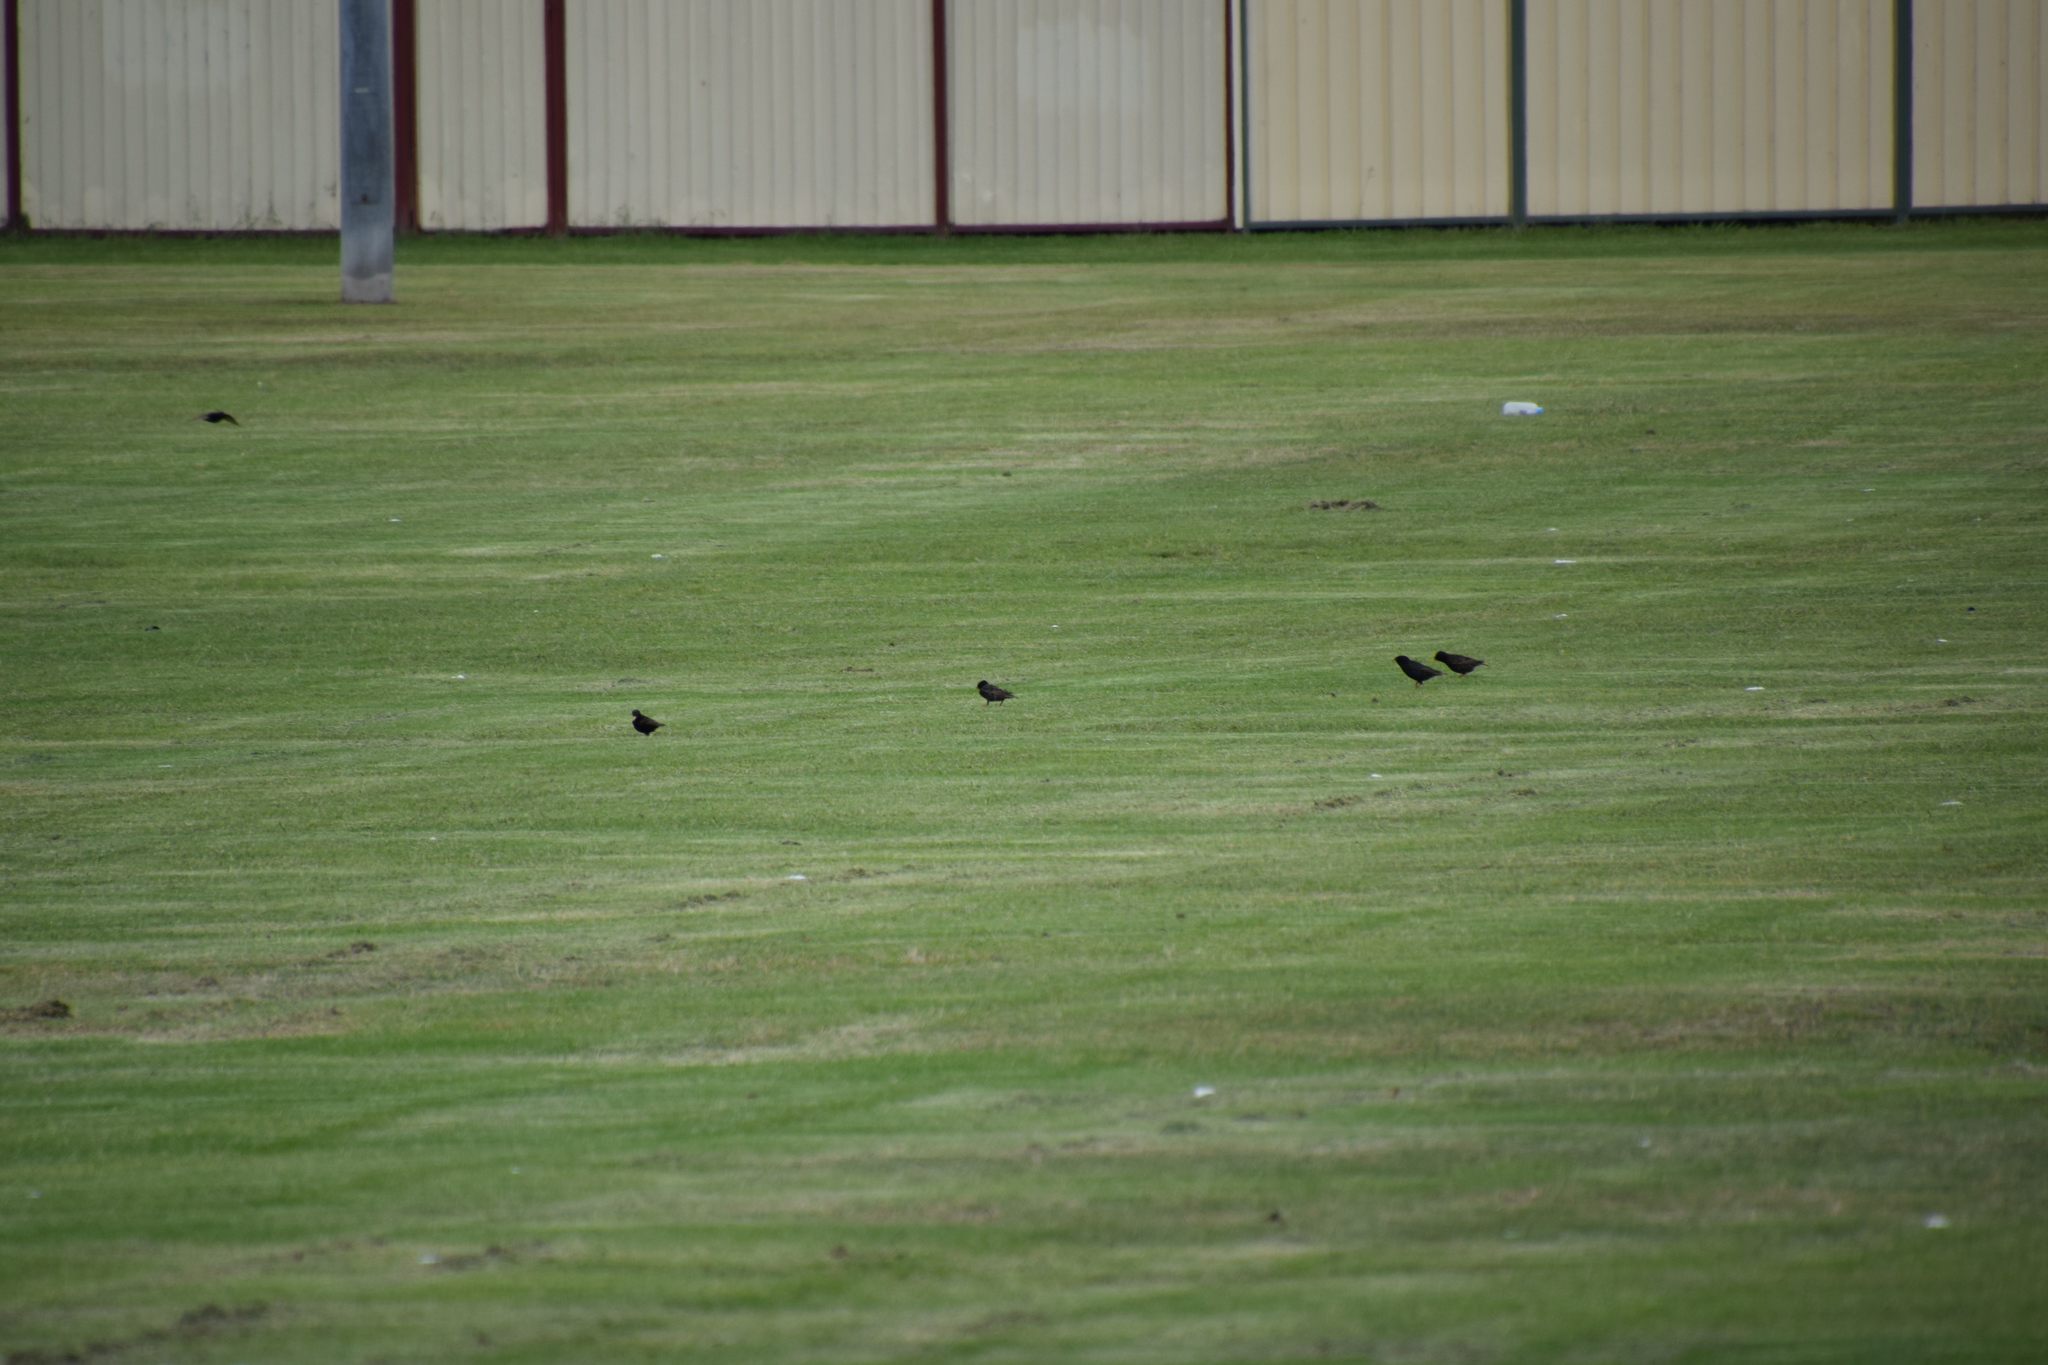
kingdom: Animalia
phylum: Chordata
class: Aves
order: Passeriformes
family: Sturnidae
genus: Sturnus
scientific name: Sturnus vulgaris
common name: Common starling
